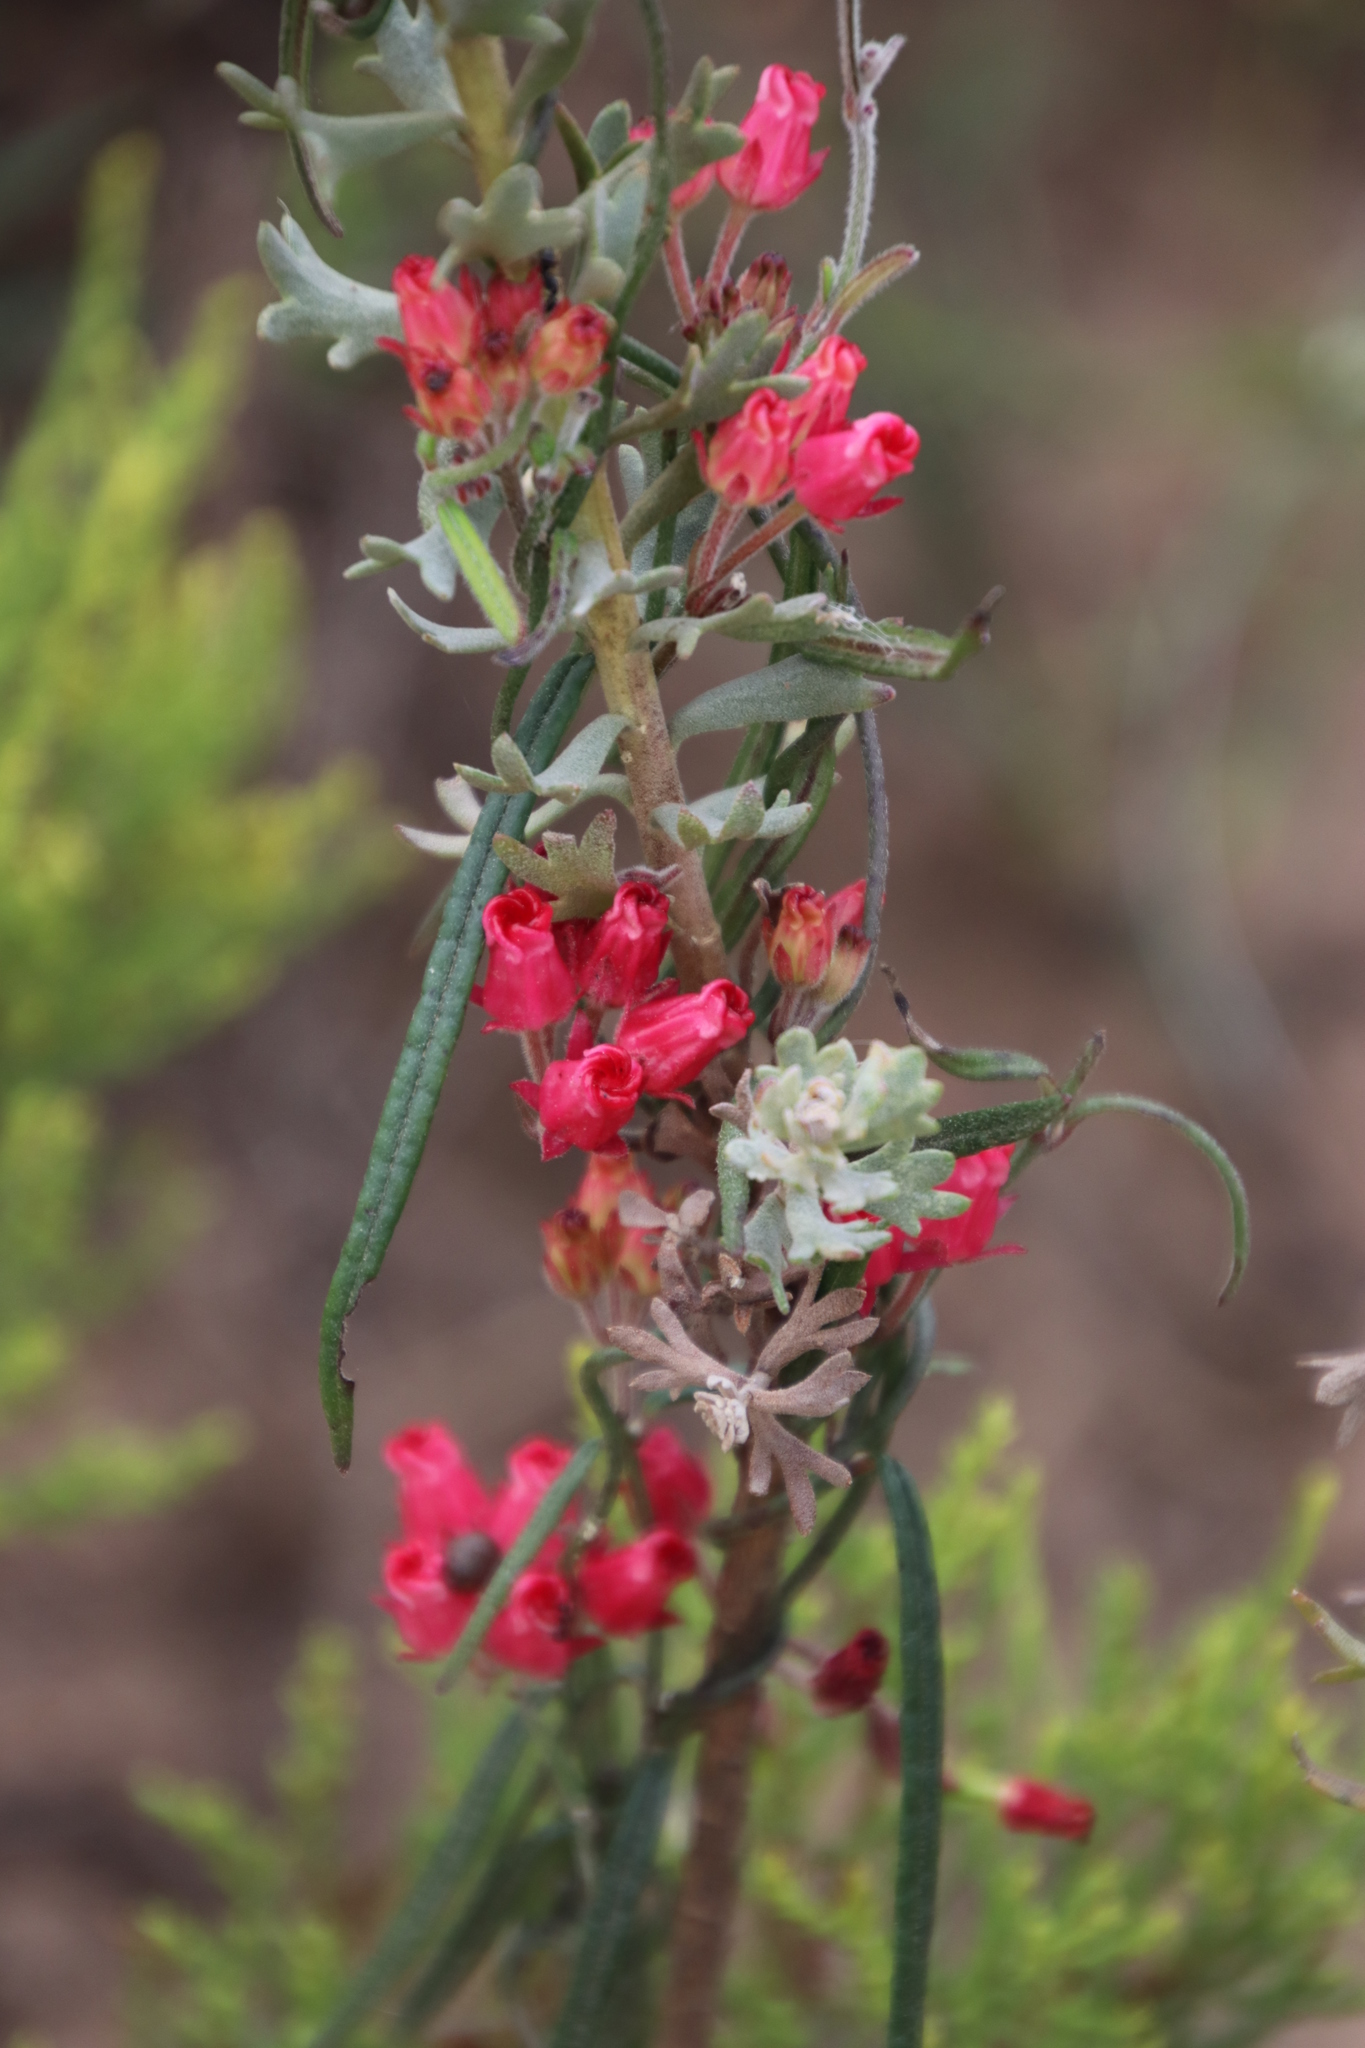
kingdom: Plantae
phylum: Tracheophyta
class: Magnoliopsida
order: Gentianales
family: Apocynaceae
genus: Microloma
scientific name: Microloma tenuifolium
